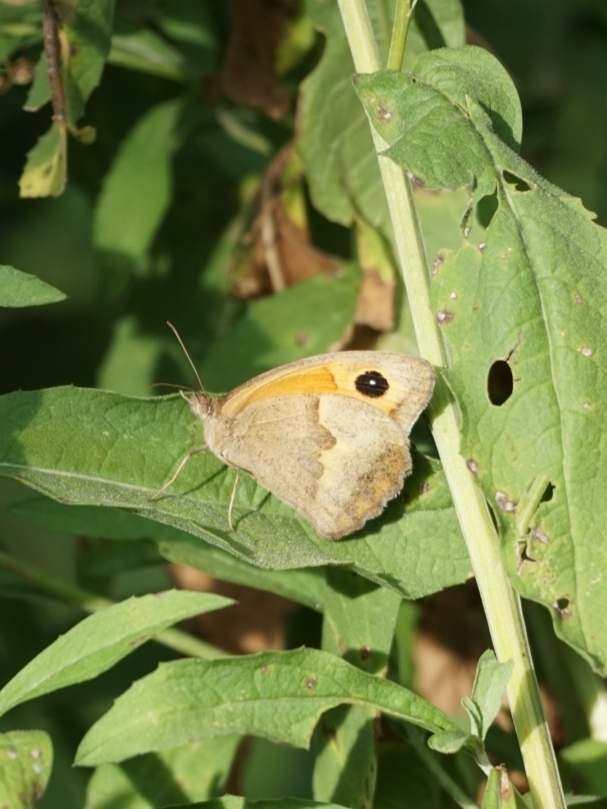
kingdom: Animalia
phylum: Arthropoda
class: Insecta
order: Lepidoptera
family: Nymphalidae
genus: Maniola
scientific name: Maniola jurtina
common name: Meadow brown
